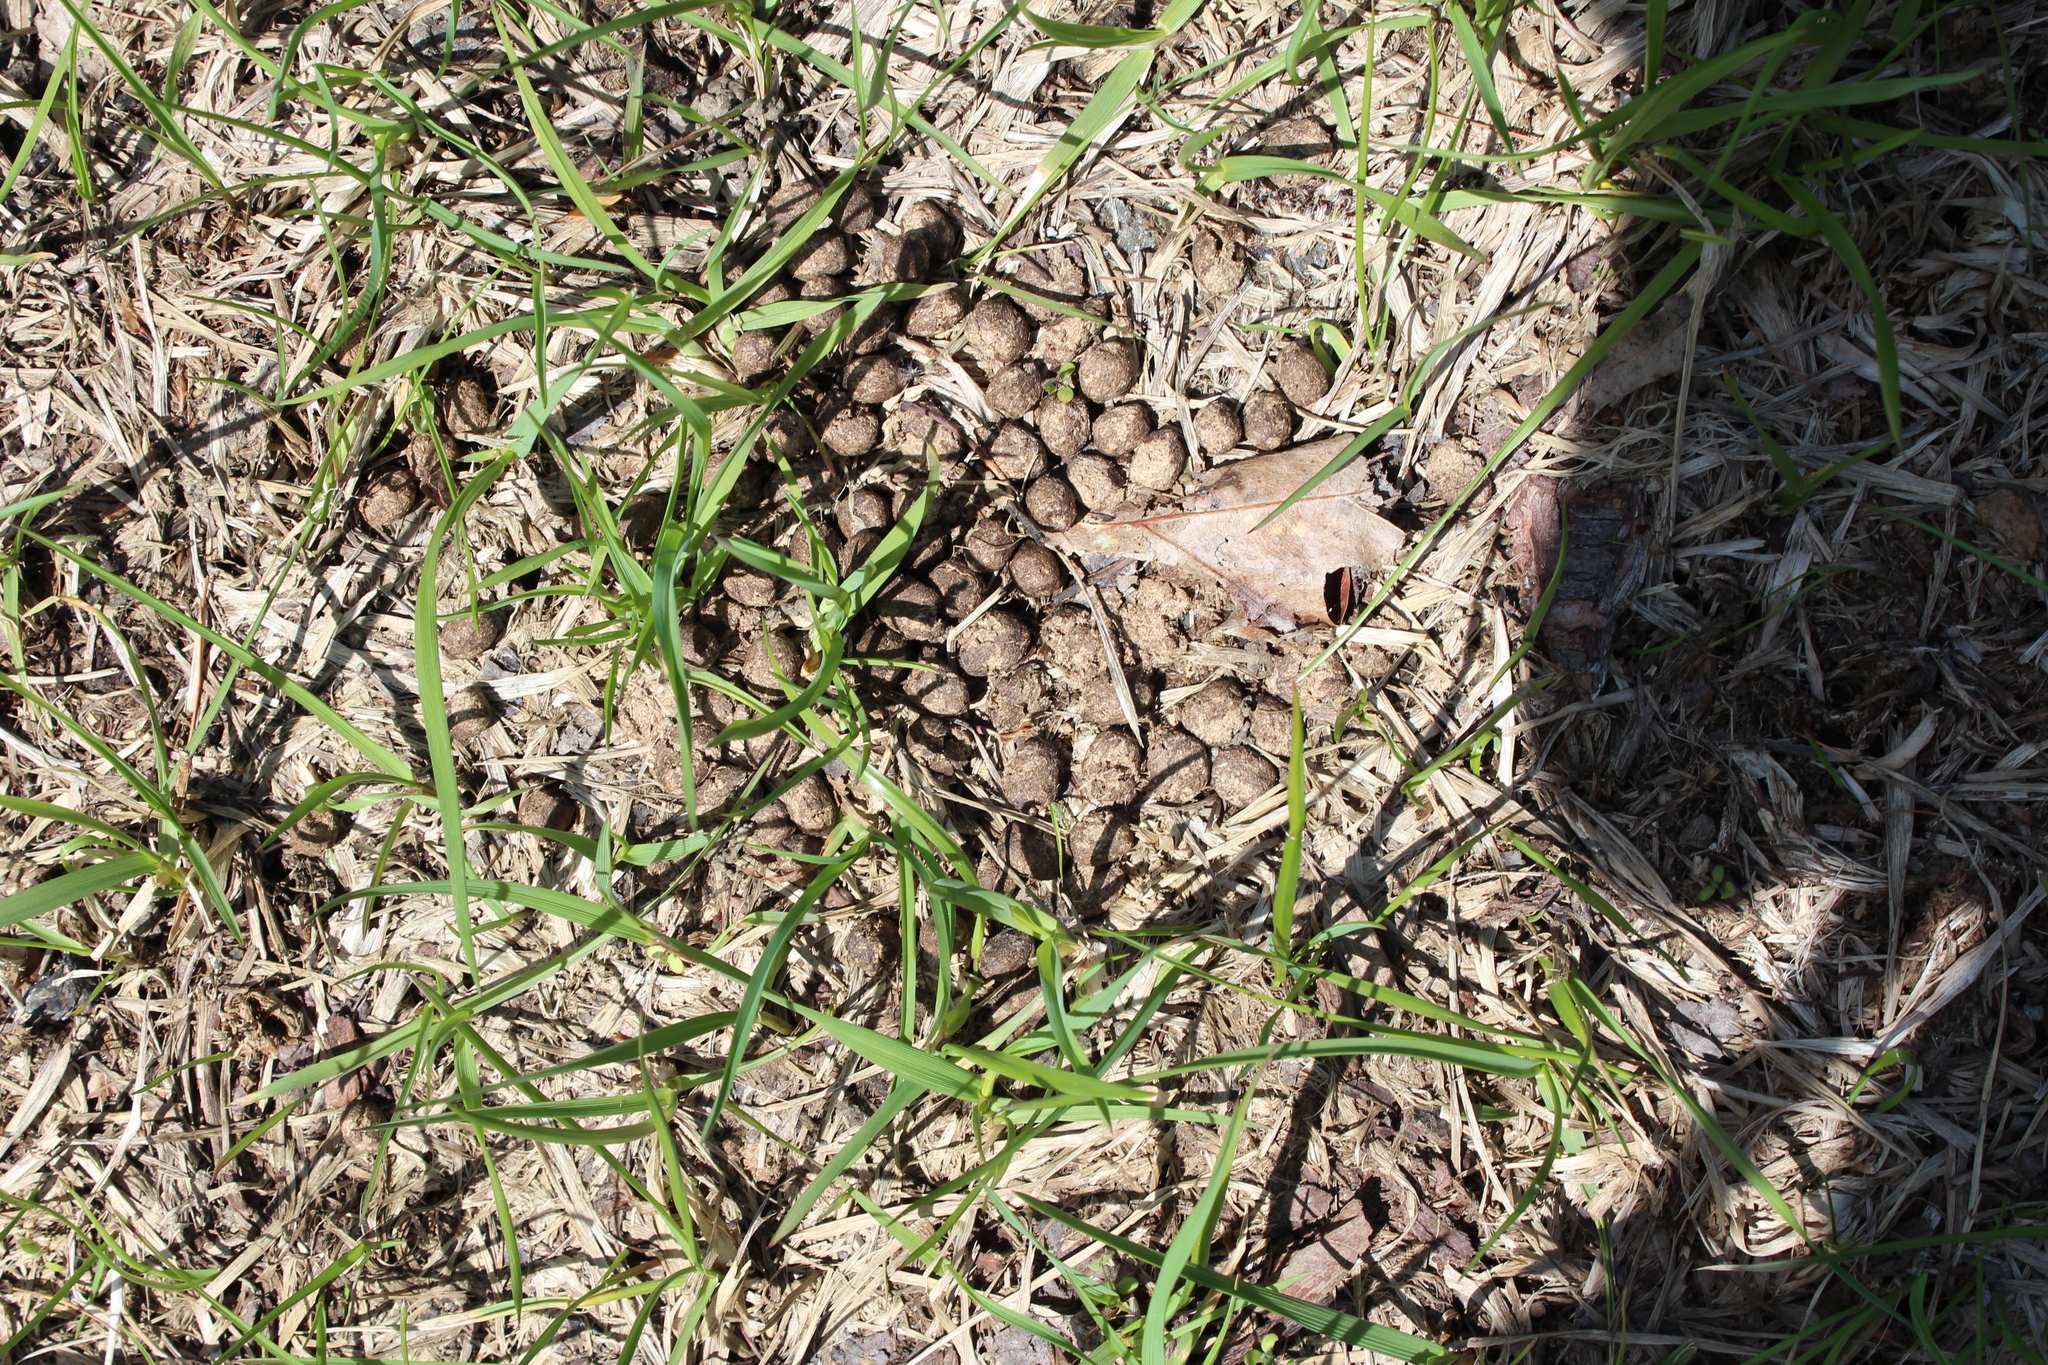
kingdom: Animalia
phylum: Chordata
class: Mammalia
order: Artiodactyla
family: Cervidae
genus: Odocoileus
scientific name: Odocoileus virginianus
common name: White-tailed deer
